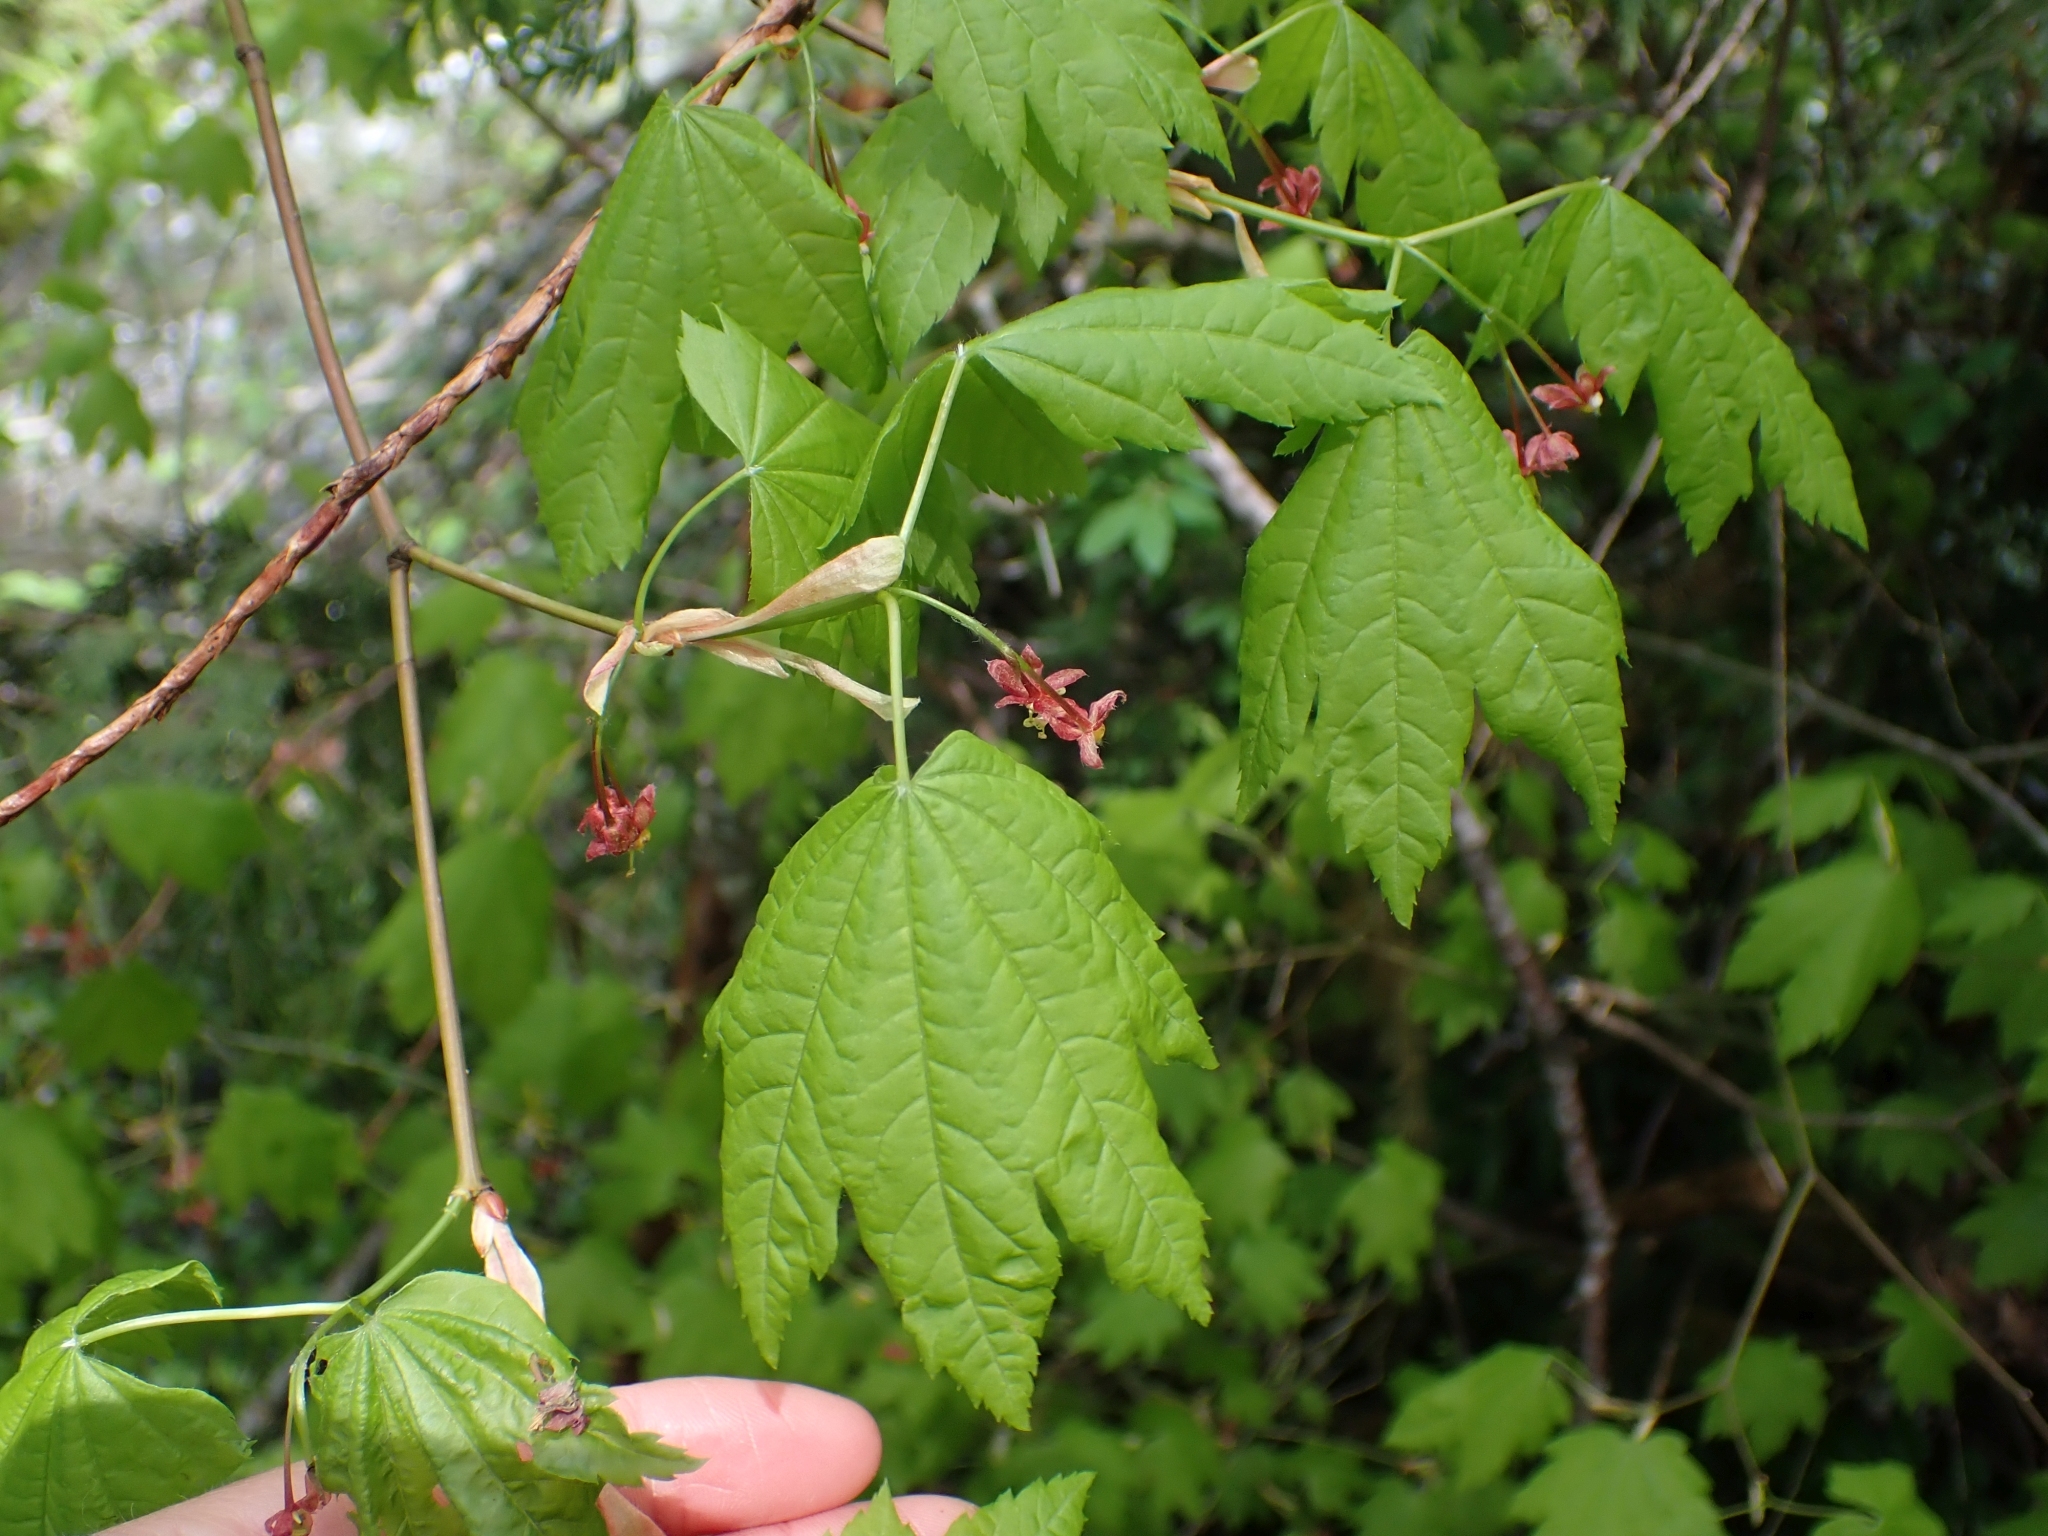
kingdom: Plantae
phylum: Tracheophyta
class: Magnoliopsida
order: Sapindales
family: Sapindaceae
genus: Acer
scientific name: Acer circinatum
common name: Vine maple
